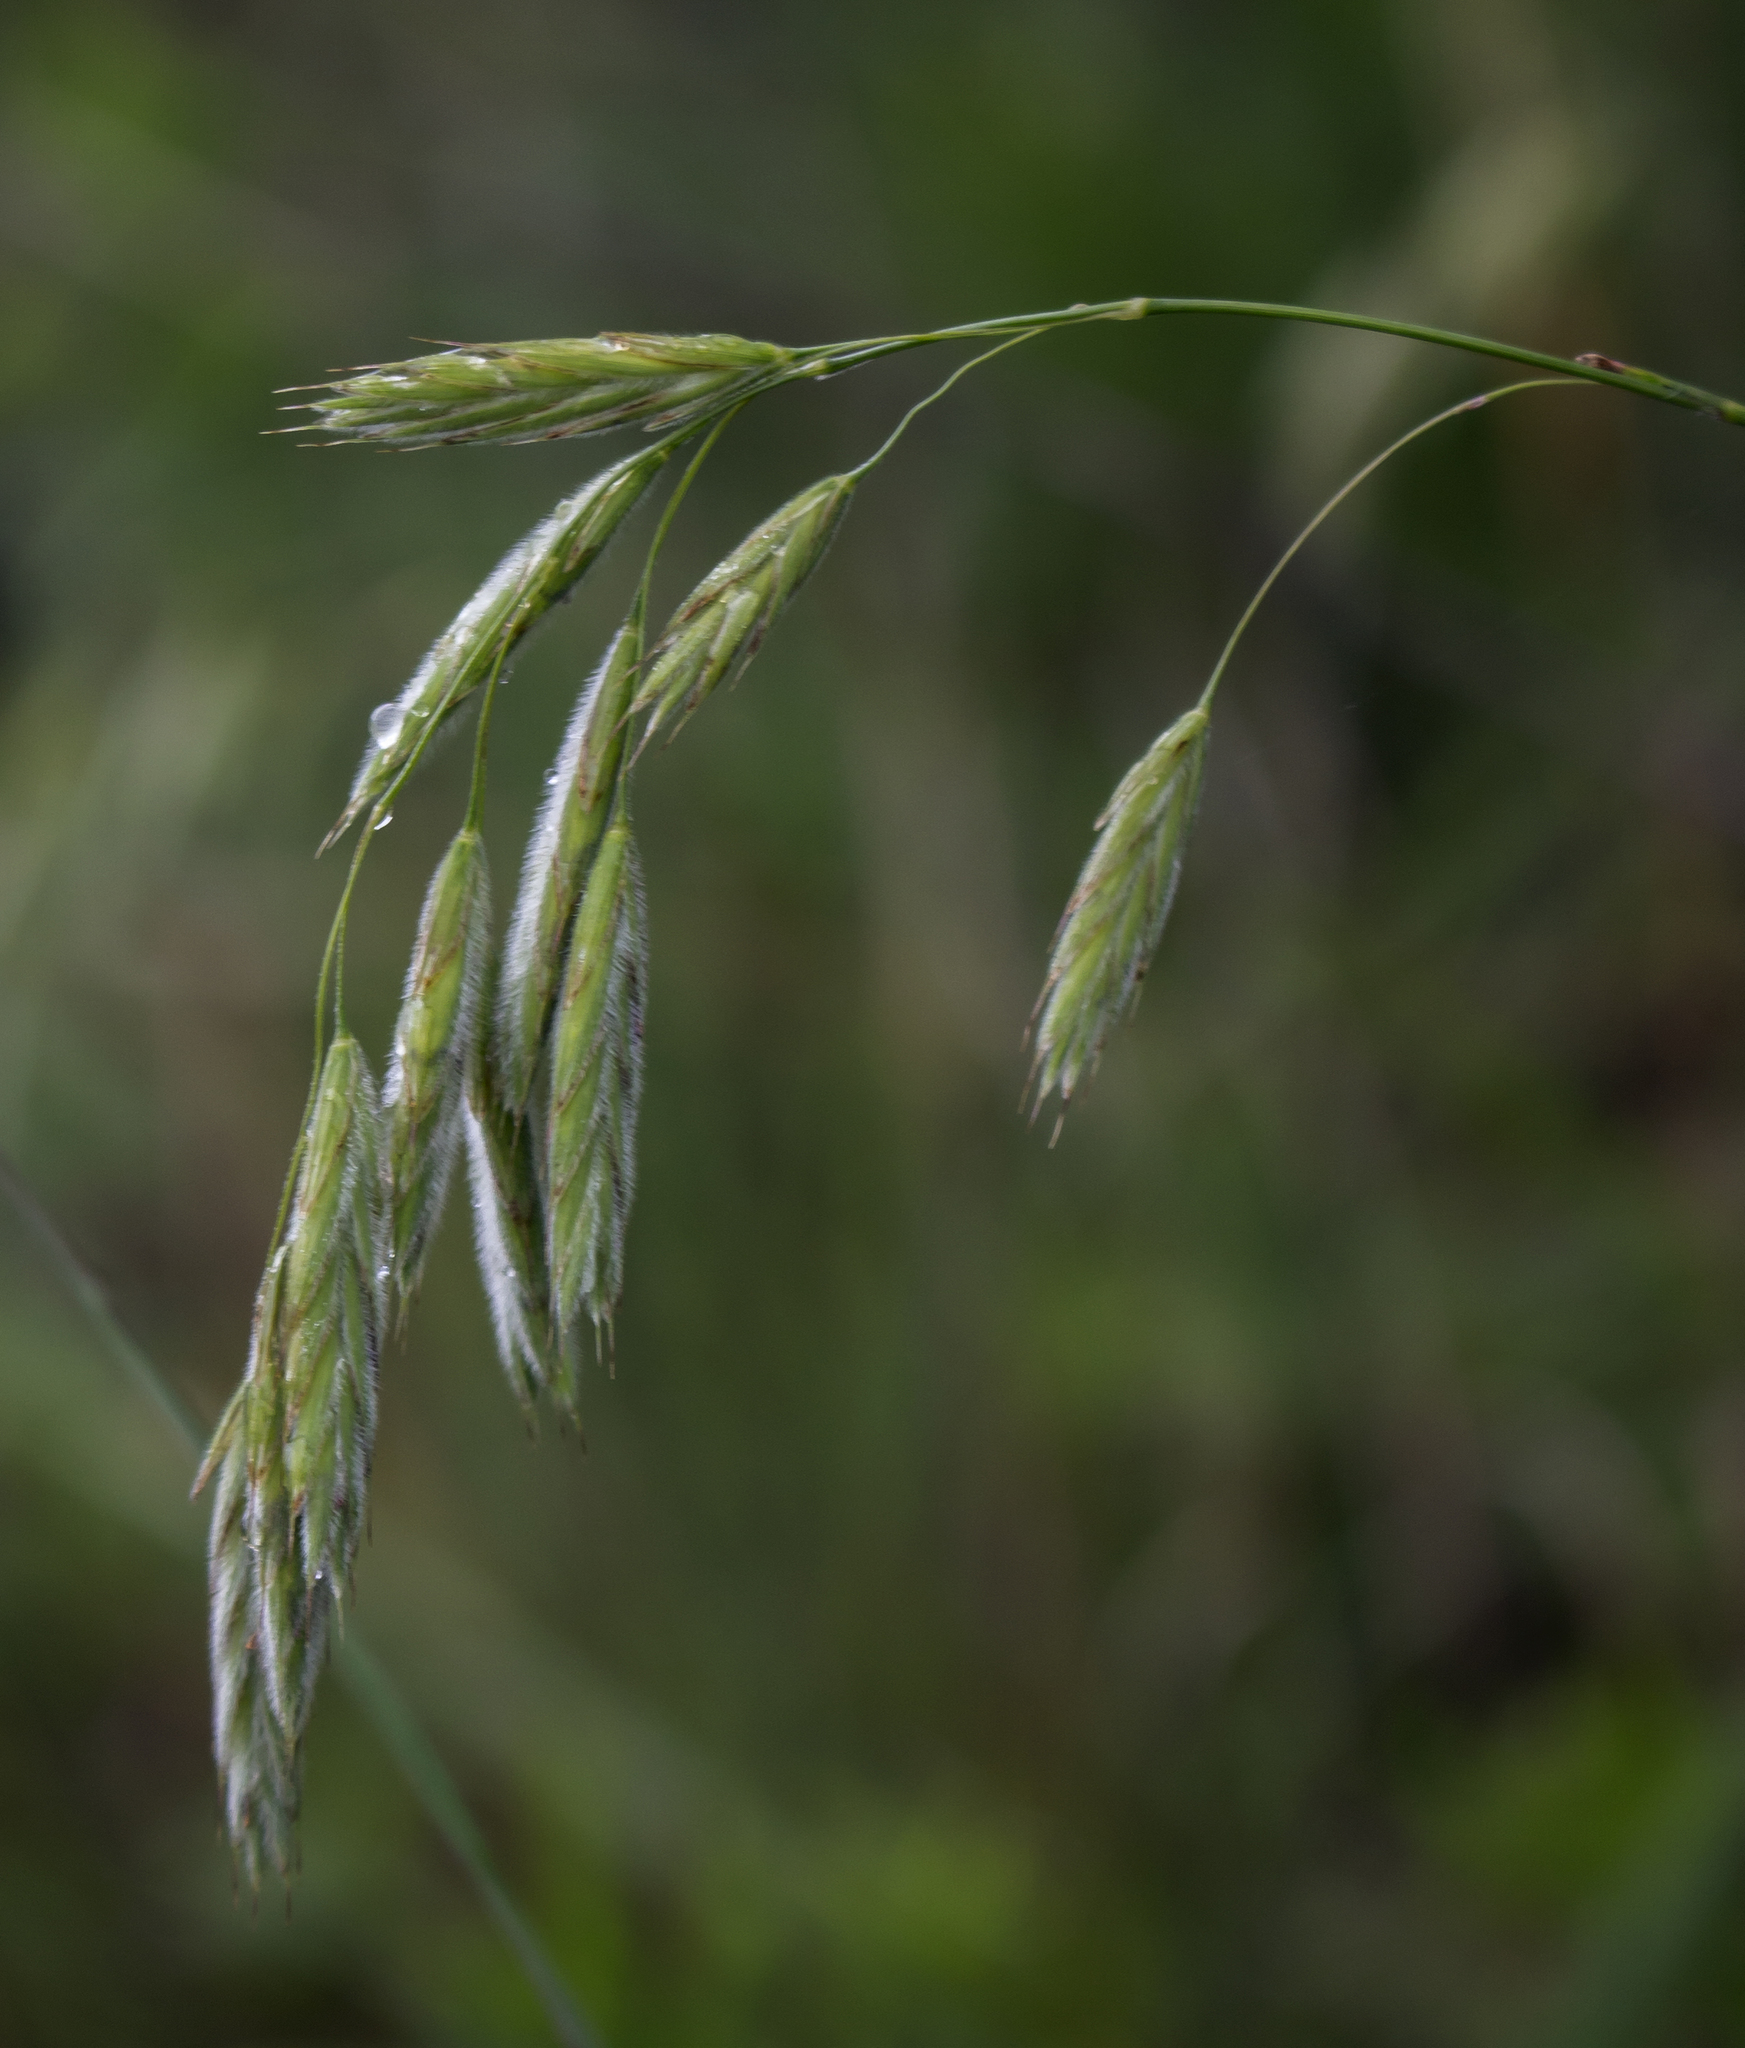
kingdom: Plantae
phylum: Tracheophyta
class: Liliopsida
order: Poales
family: Poaceae
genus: Bromus
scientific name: Bromus kalmii
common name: Kalm brome
